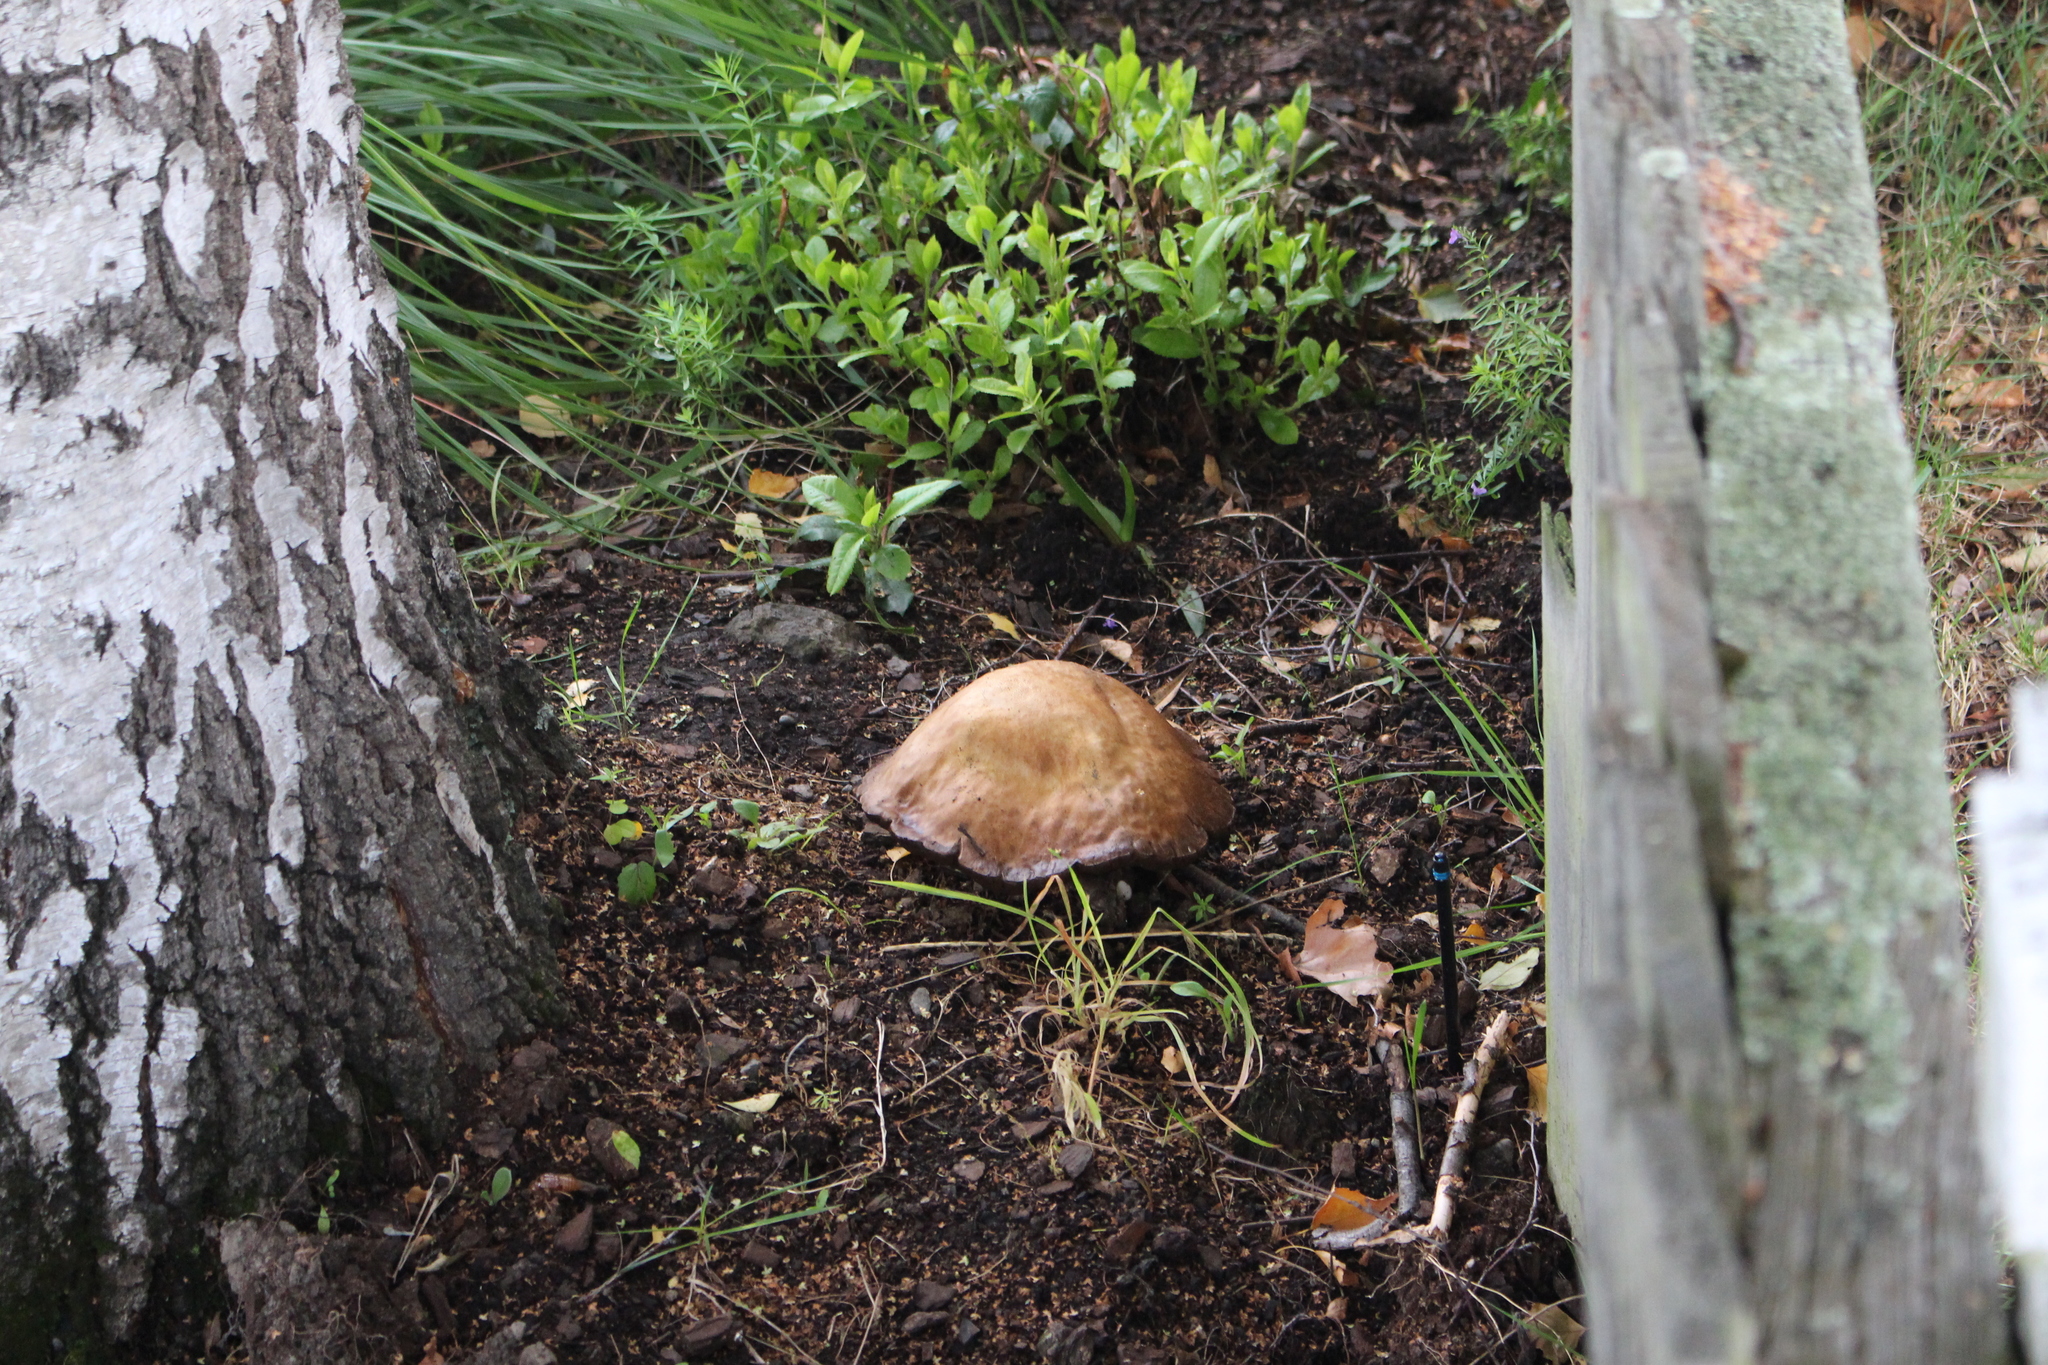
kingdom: Fungi
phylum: Basidiomycota
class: Agaricomycetes
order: Boletales
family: Boletaceae
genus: Leccinum
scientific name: Leccinum scabrum
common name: Blushing bolete
